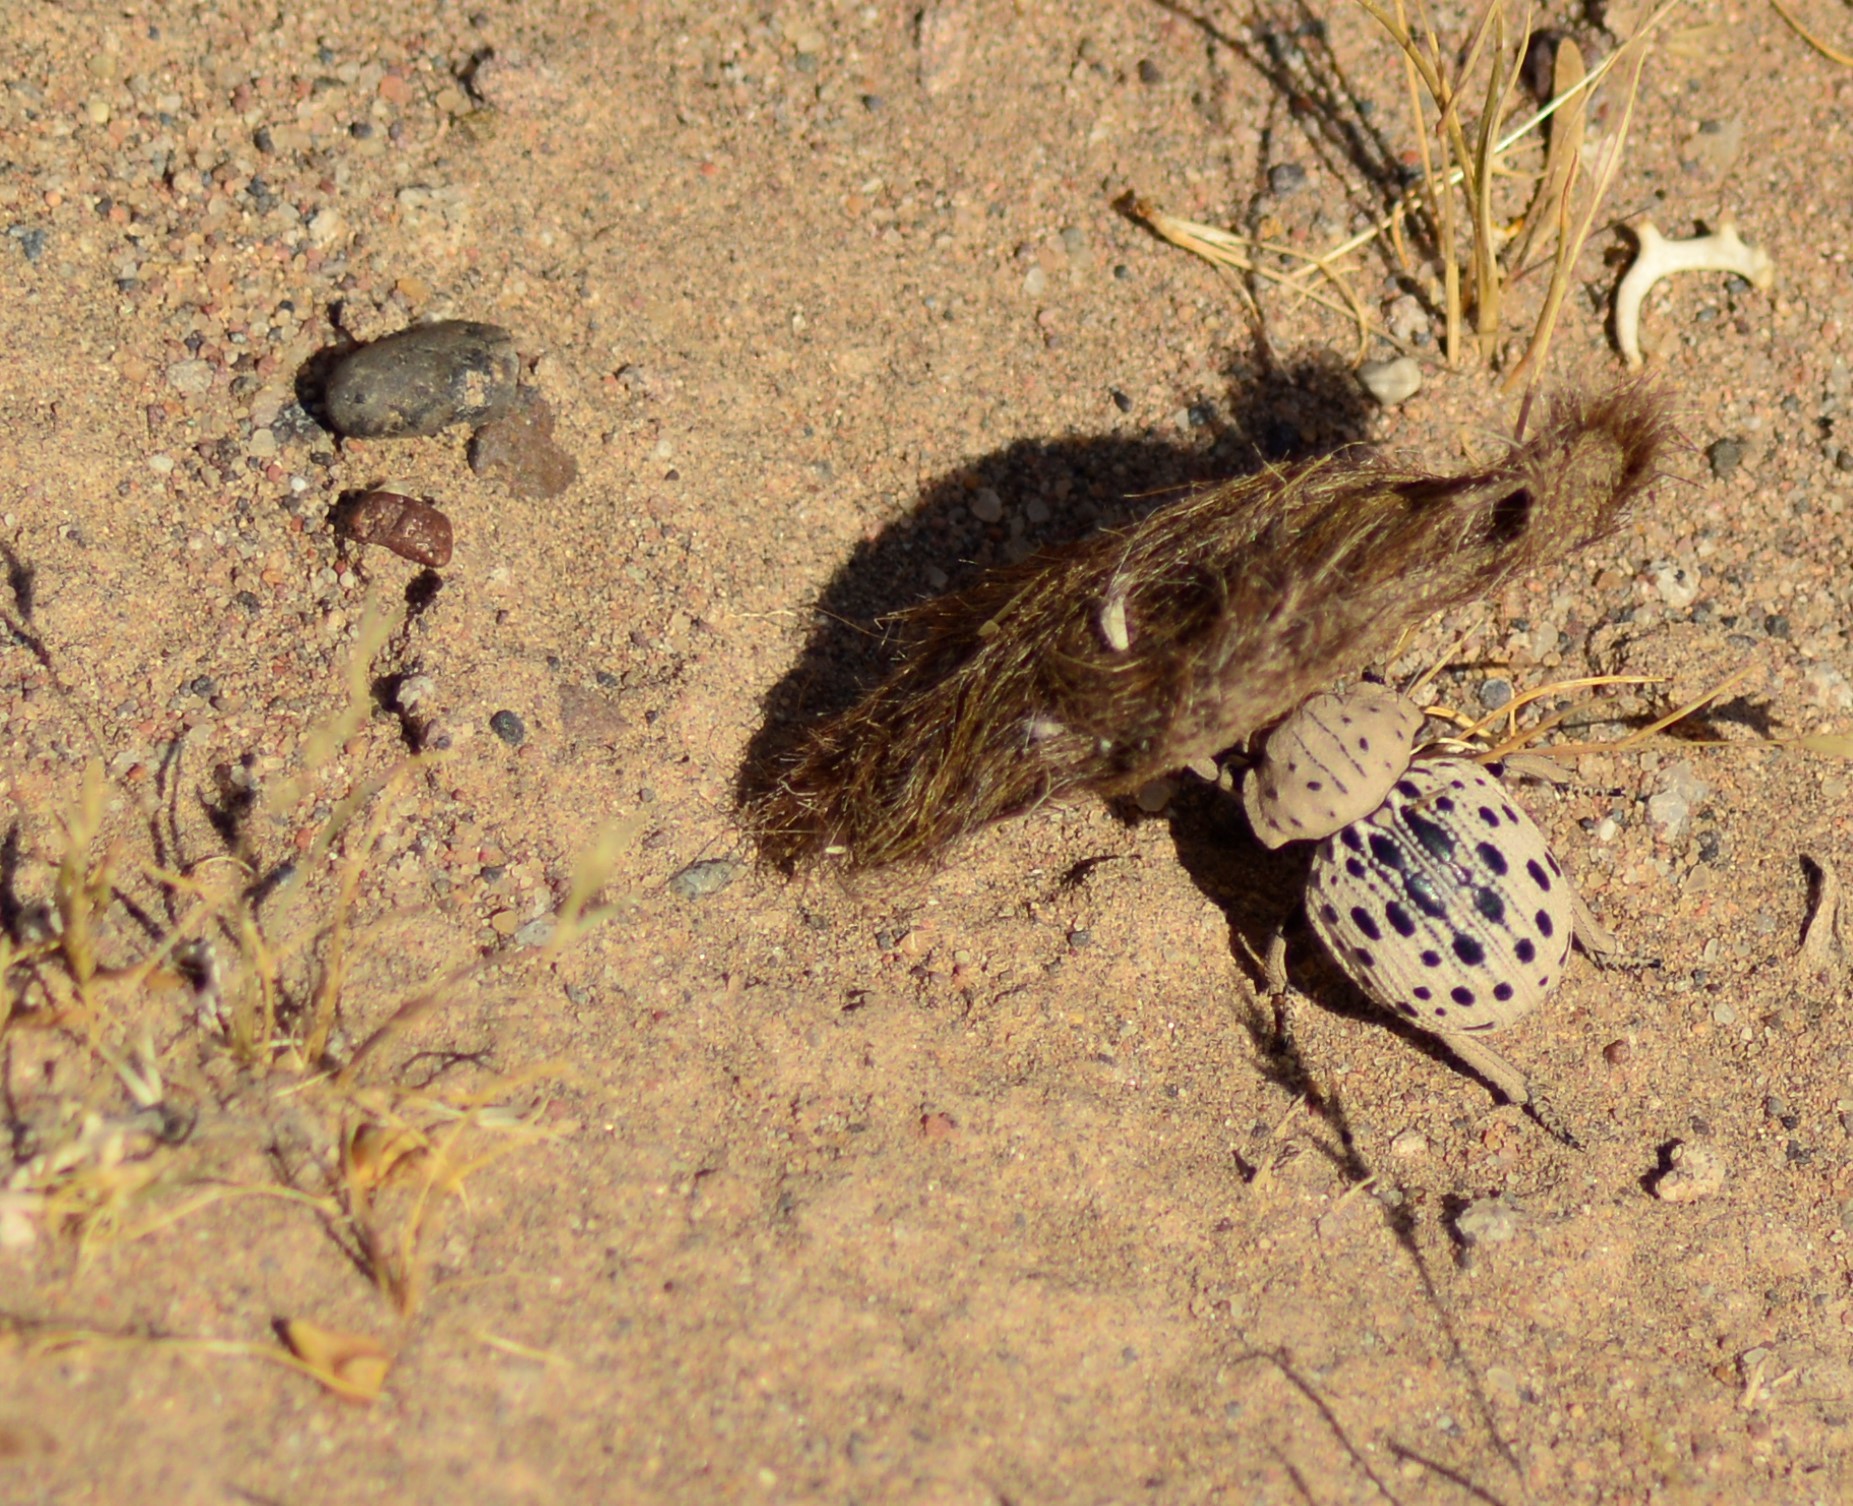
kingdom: Animalia
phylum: Arthropoda
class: Insecta
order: Coleoptera
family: Trogidae
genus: Omorgus
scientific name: Omorgus pastillarius
